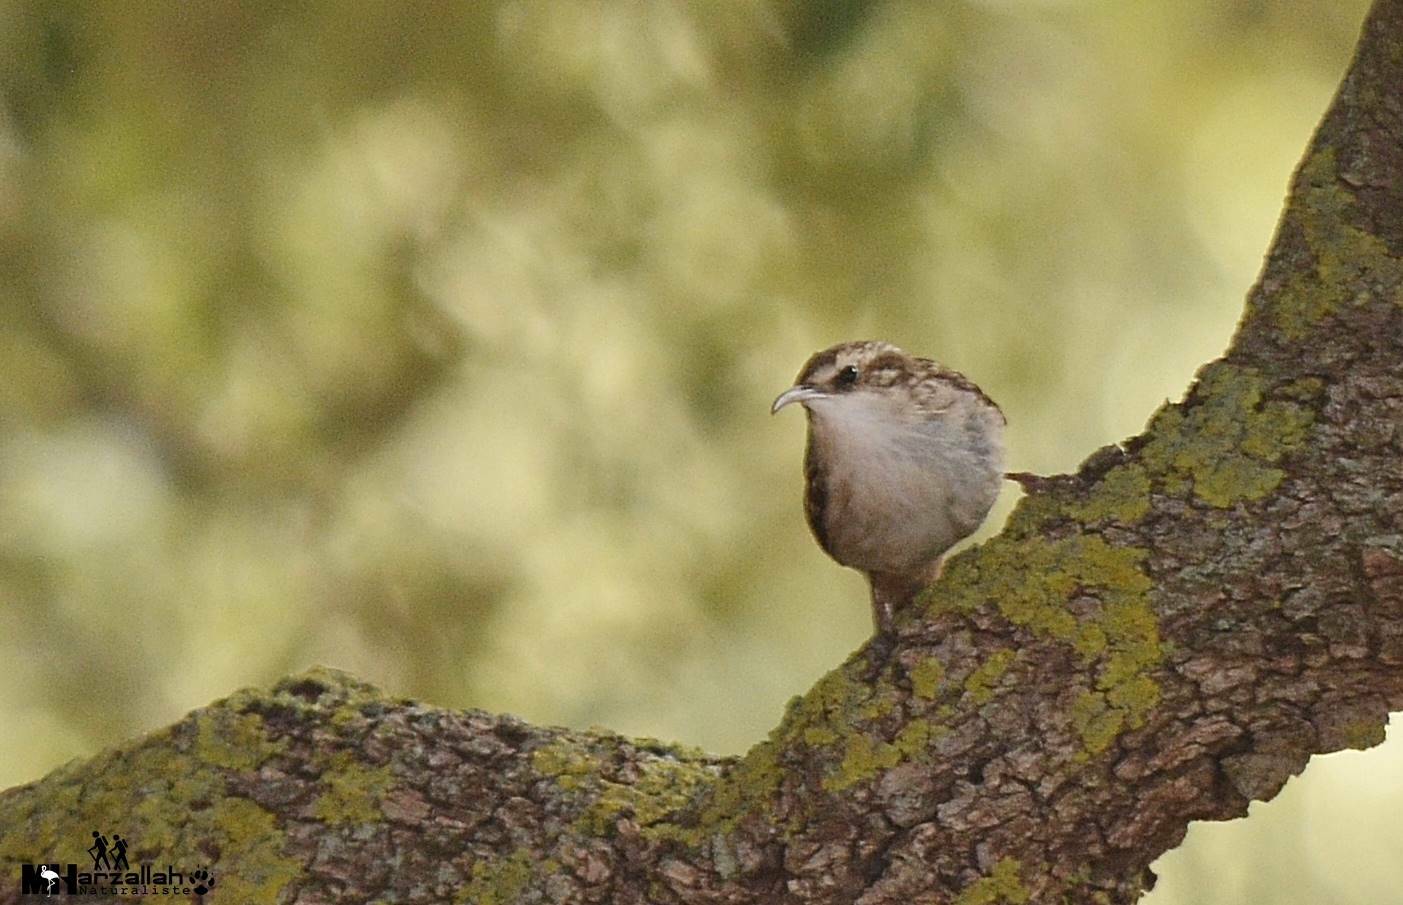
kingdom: Animalia
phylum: Chordata
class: Aves
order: Passeriformes
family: Certhiidae
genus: Certhia
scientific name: Certhia brachydactyla
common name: Short-toed treecreeper
